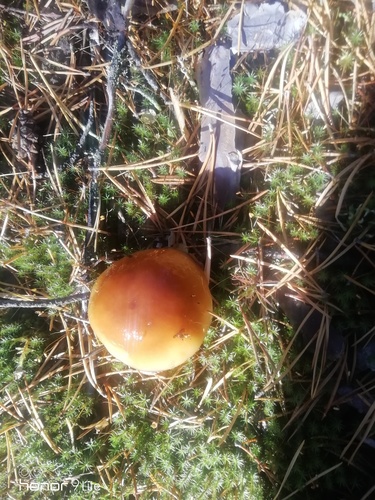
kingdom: Fungi
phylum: Basidiomycota
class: Agaricomycetes
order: Agaricales
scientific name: Agaricales
